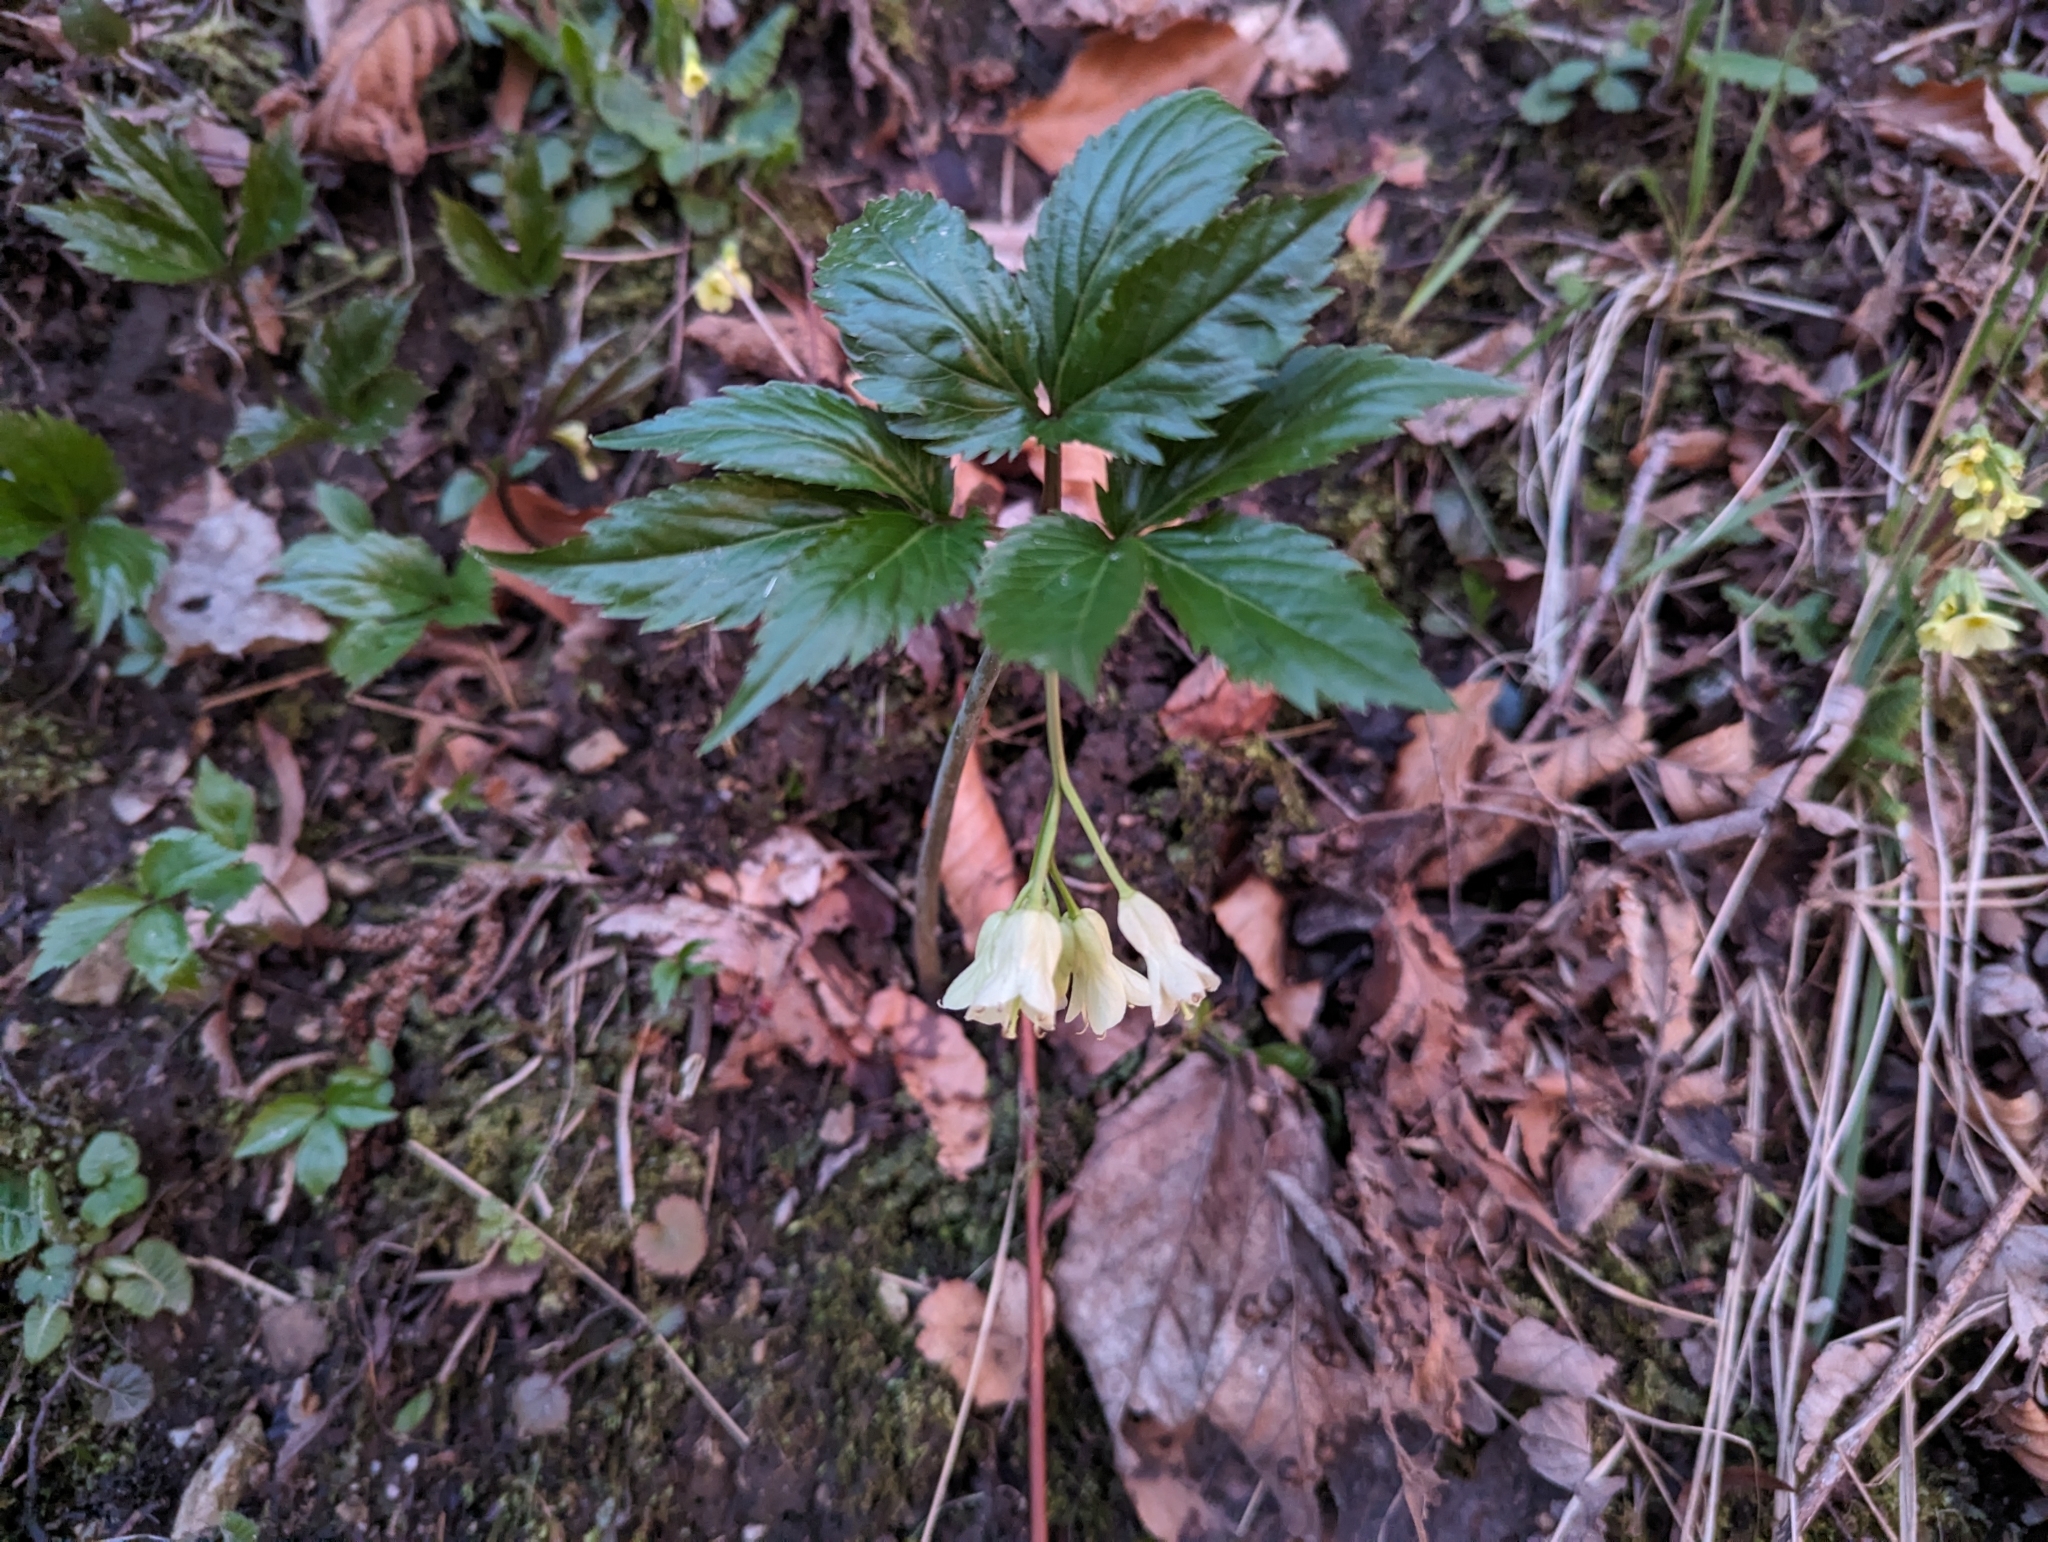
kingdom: Plantae
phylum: Tracheophyta
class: Magnoliopsida
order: Brassicales
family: Brassicaceae
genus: Cardamine
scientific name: Cardamine enneaphyllos
